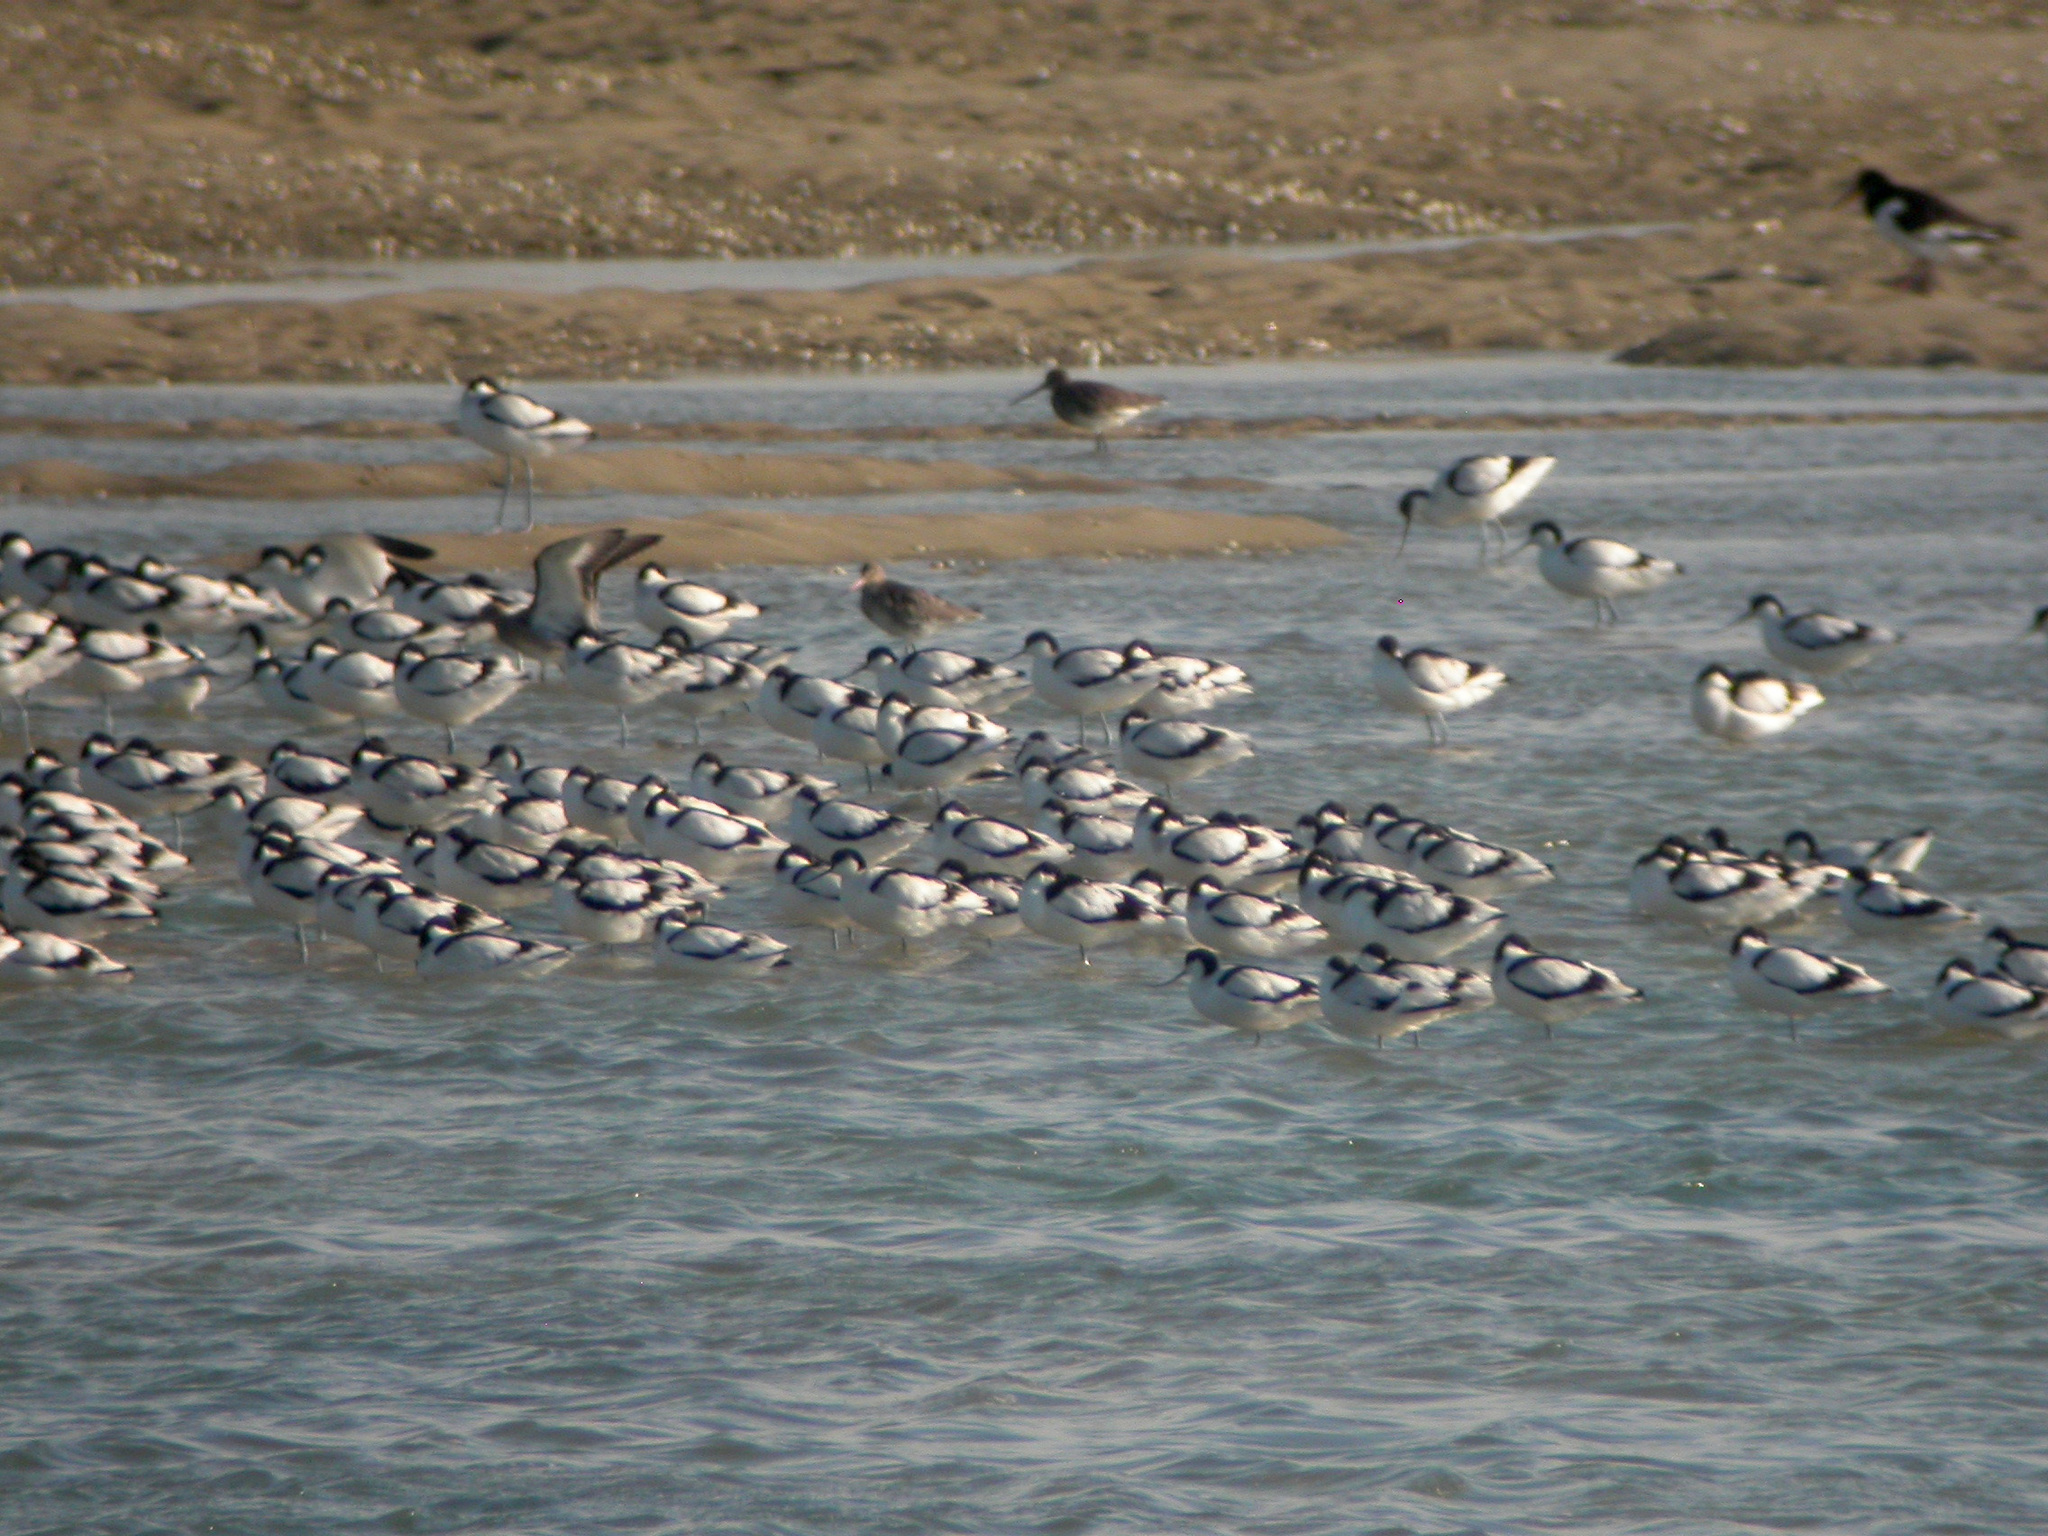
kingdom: Animalia
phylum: Chordata
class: Aves
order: Charadriiformes
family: Recurvirostridae
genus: Recurvirostra
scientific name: Recurvirostra avosetta
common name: Pied avocet
